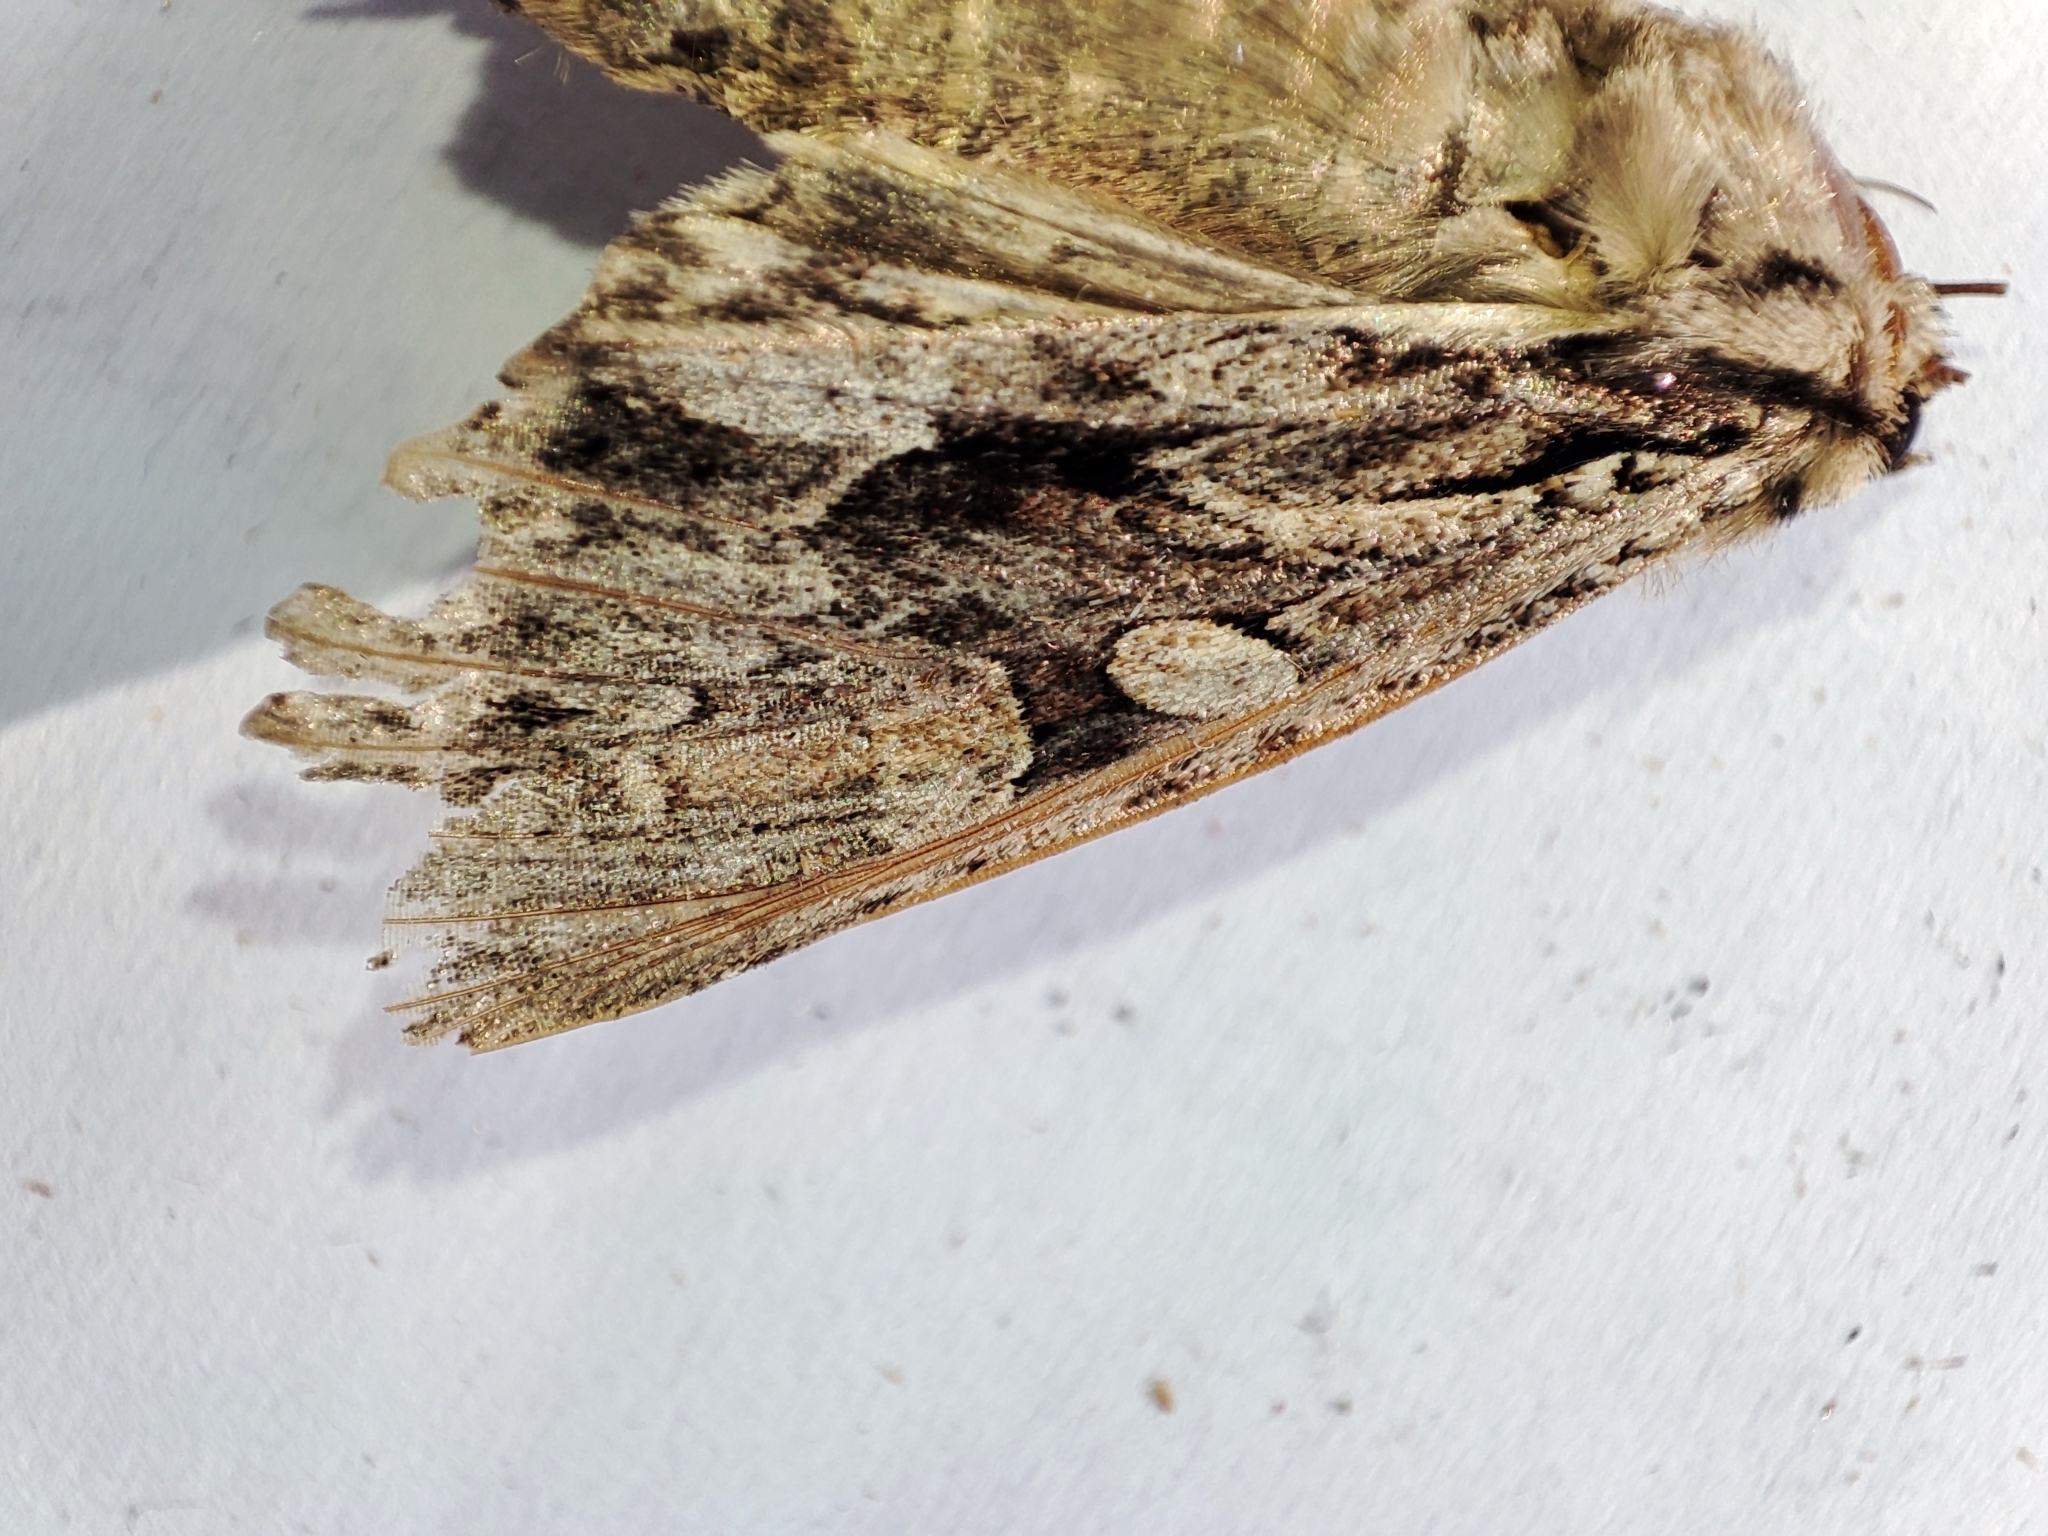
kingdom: Animalia
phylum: Arthropoda
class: Insecta
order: Lepidoptera
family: Noctuidae
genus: Apamea
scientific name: Apamea monoglypha
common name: Dark arches
